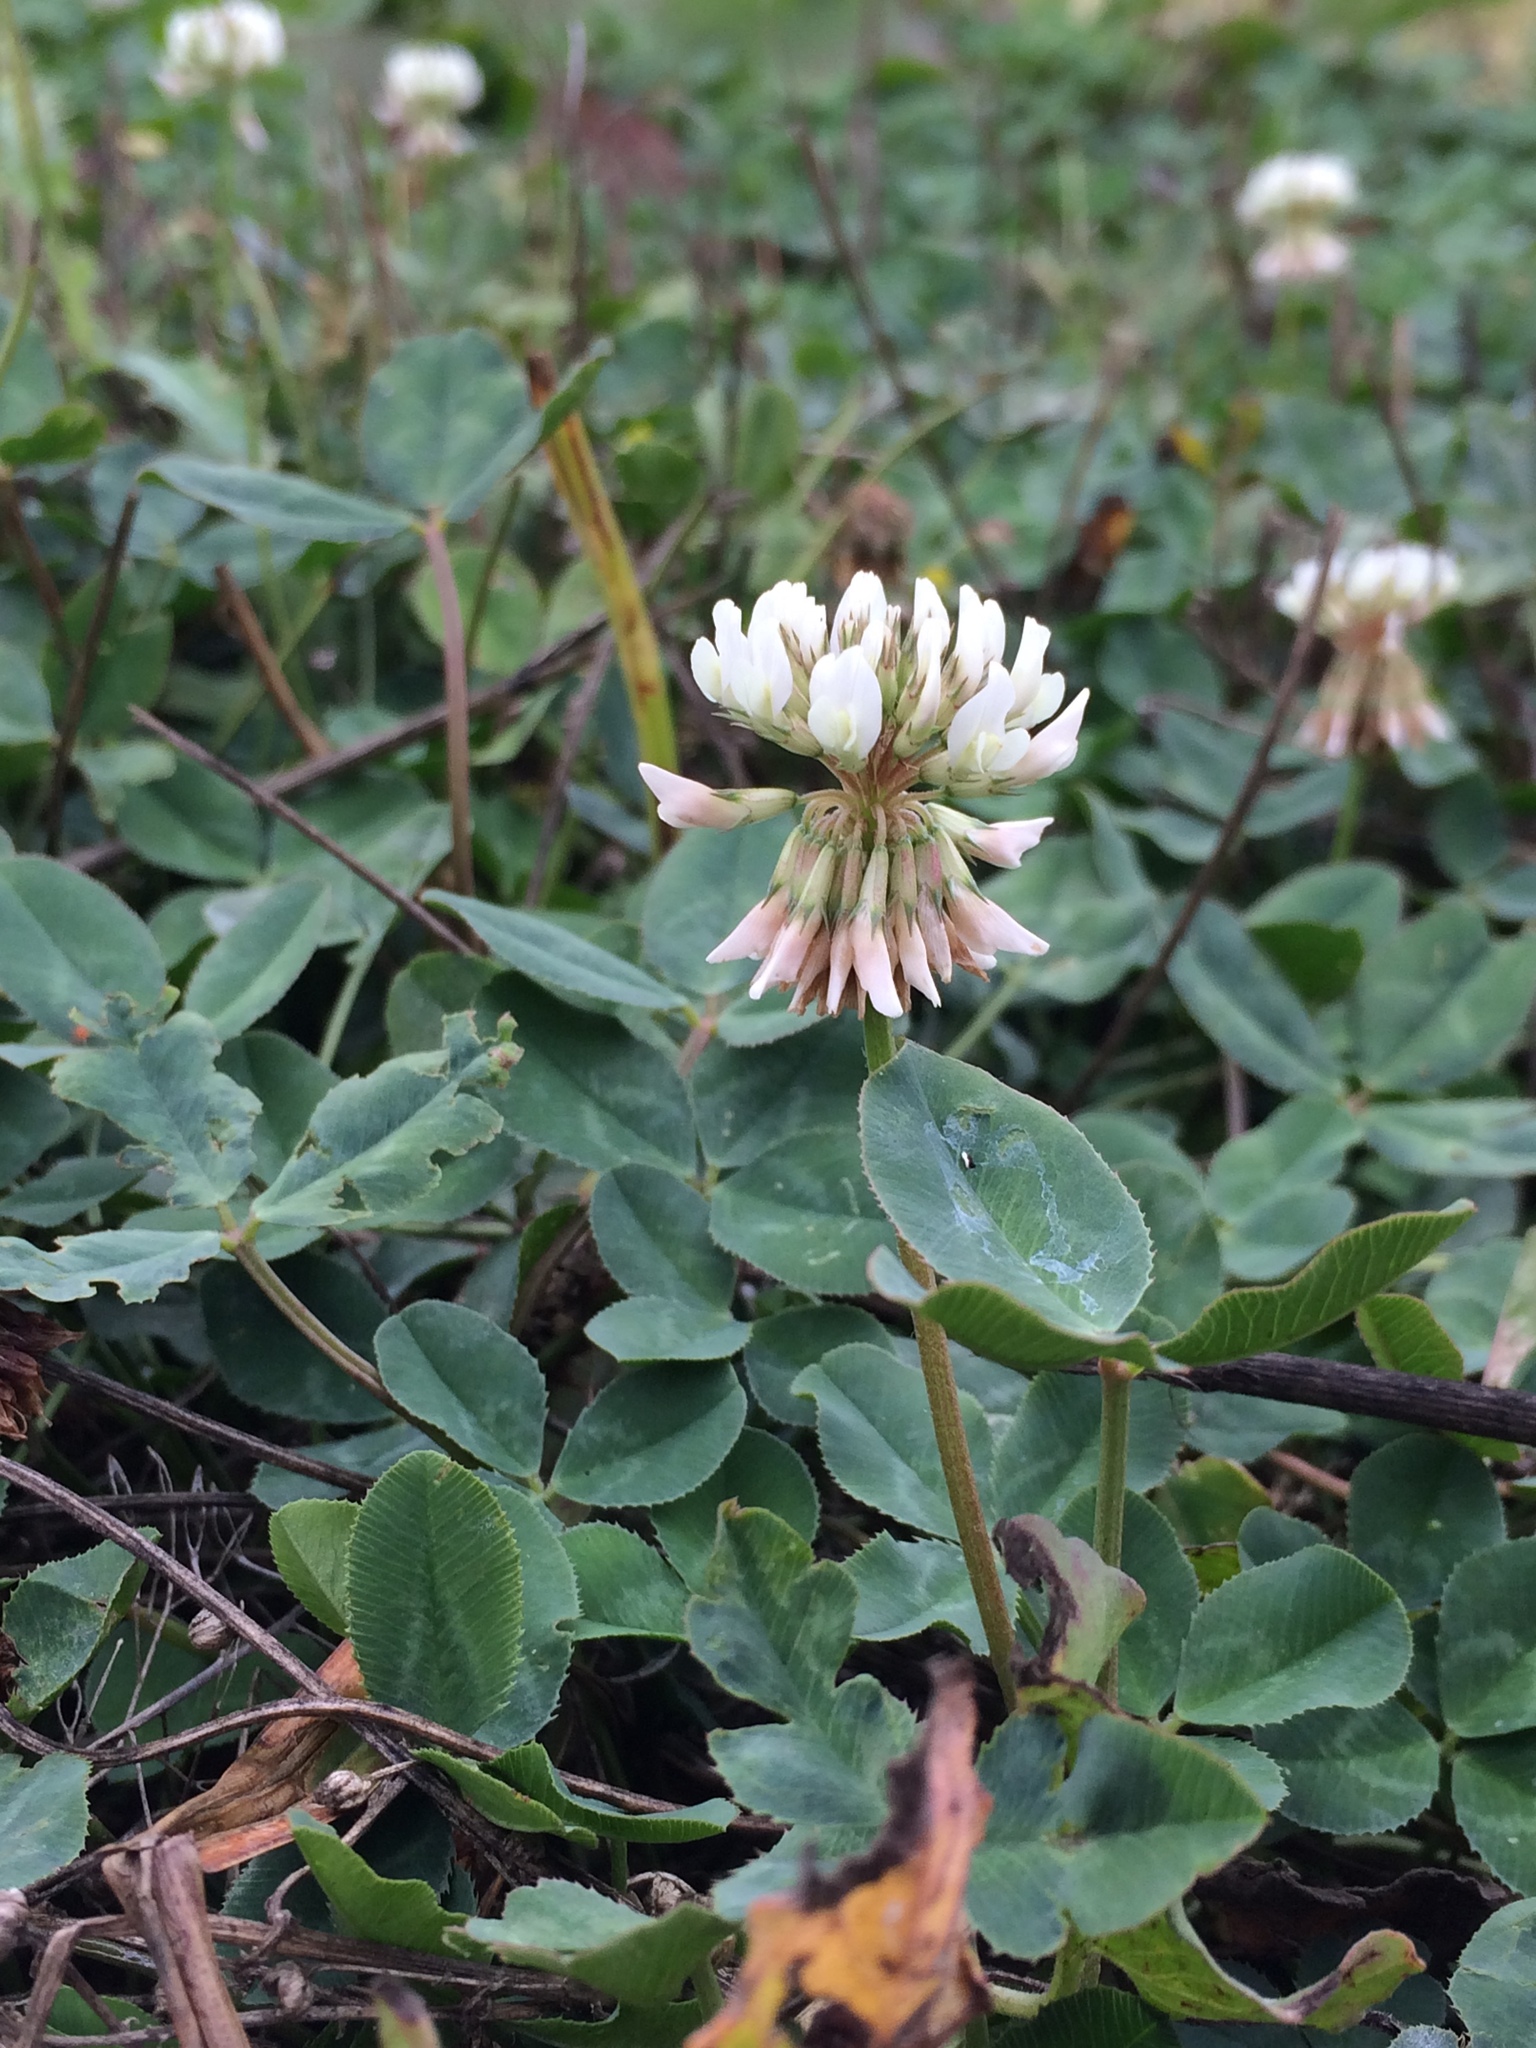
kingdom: Plantae
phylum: Tracheophyta
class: Magnoliopsida
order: Fabales
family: Fabaceae
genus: Trifolium
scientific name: Trifolium repens
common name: White clover
